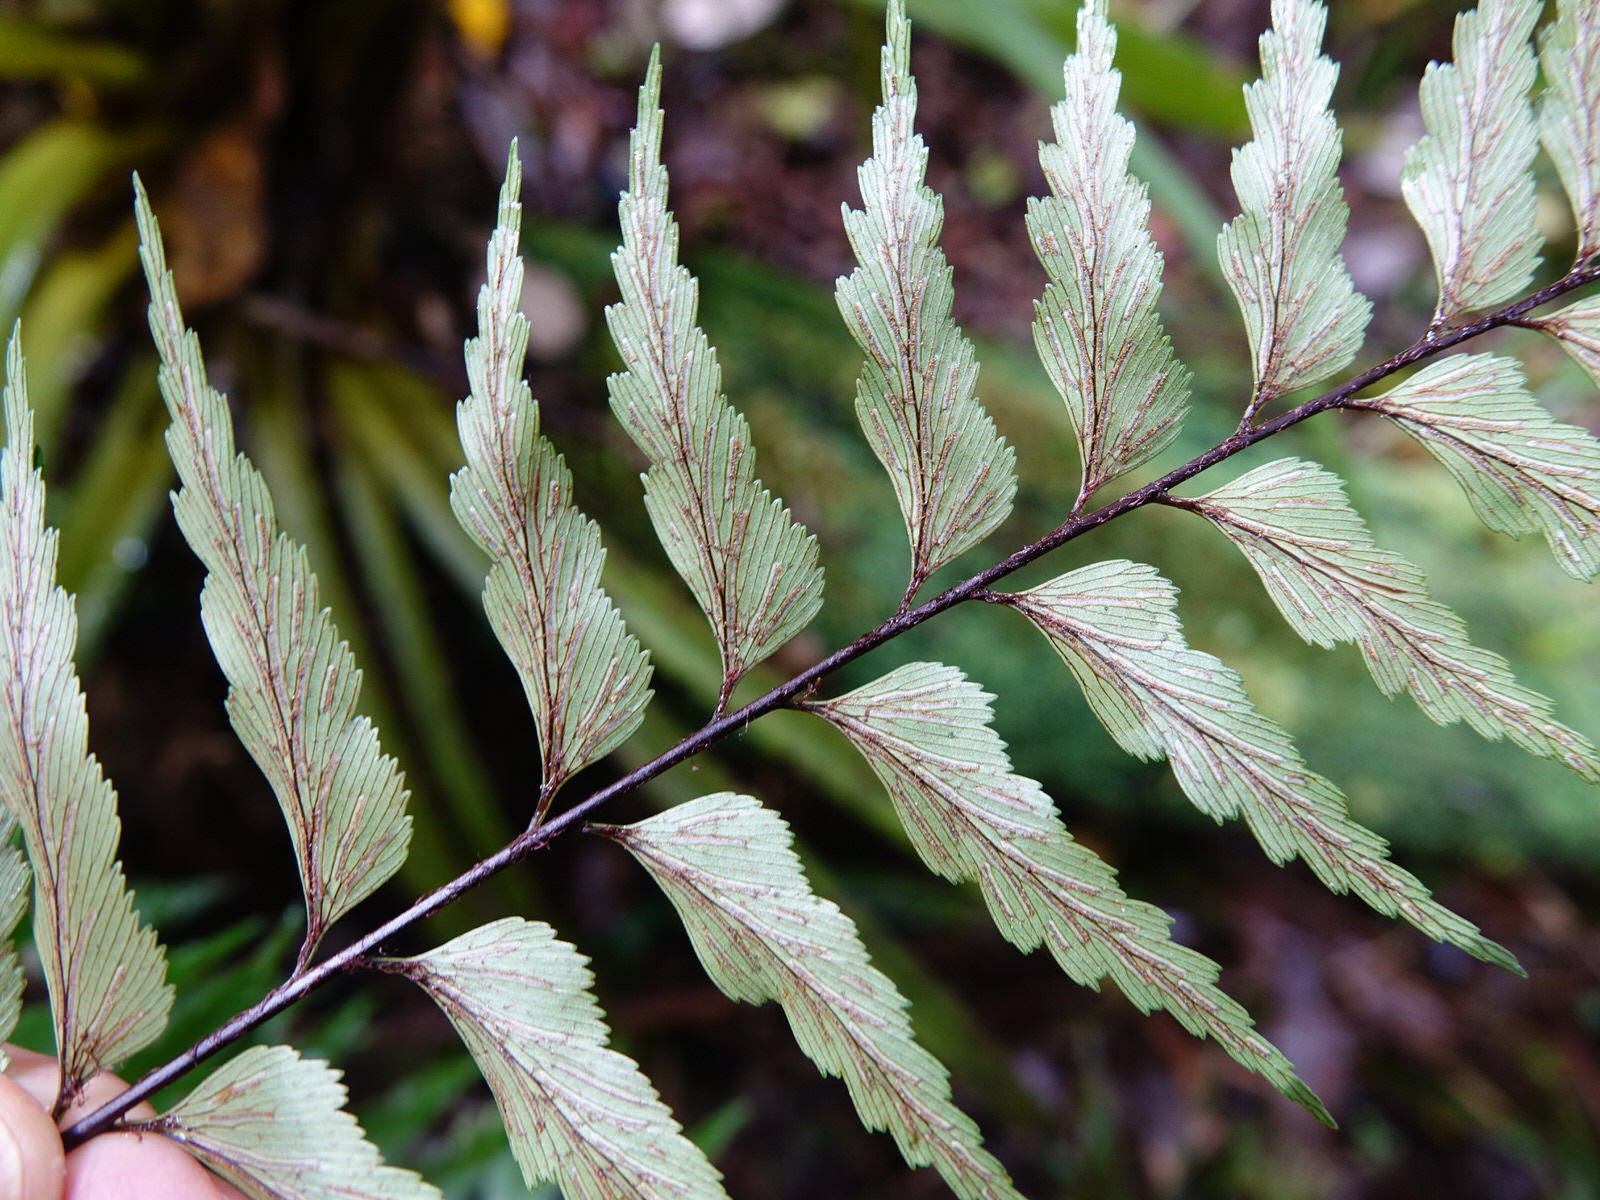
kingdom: Plantae
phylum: Tracheophyta
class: Polypodiopsida
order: Polypodiales
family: Aspleniaceae
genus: Asplenium
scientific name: Asplenium polyodon
